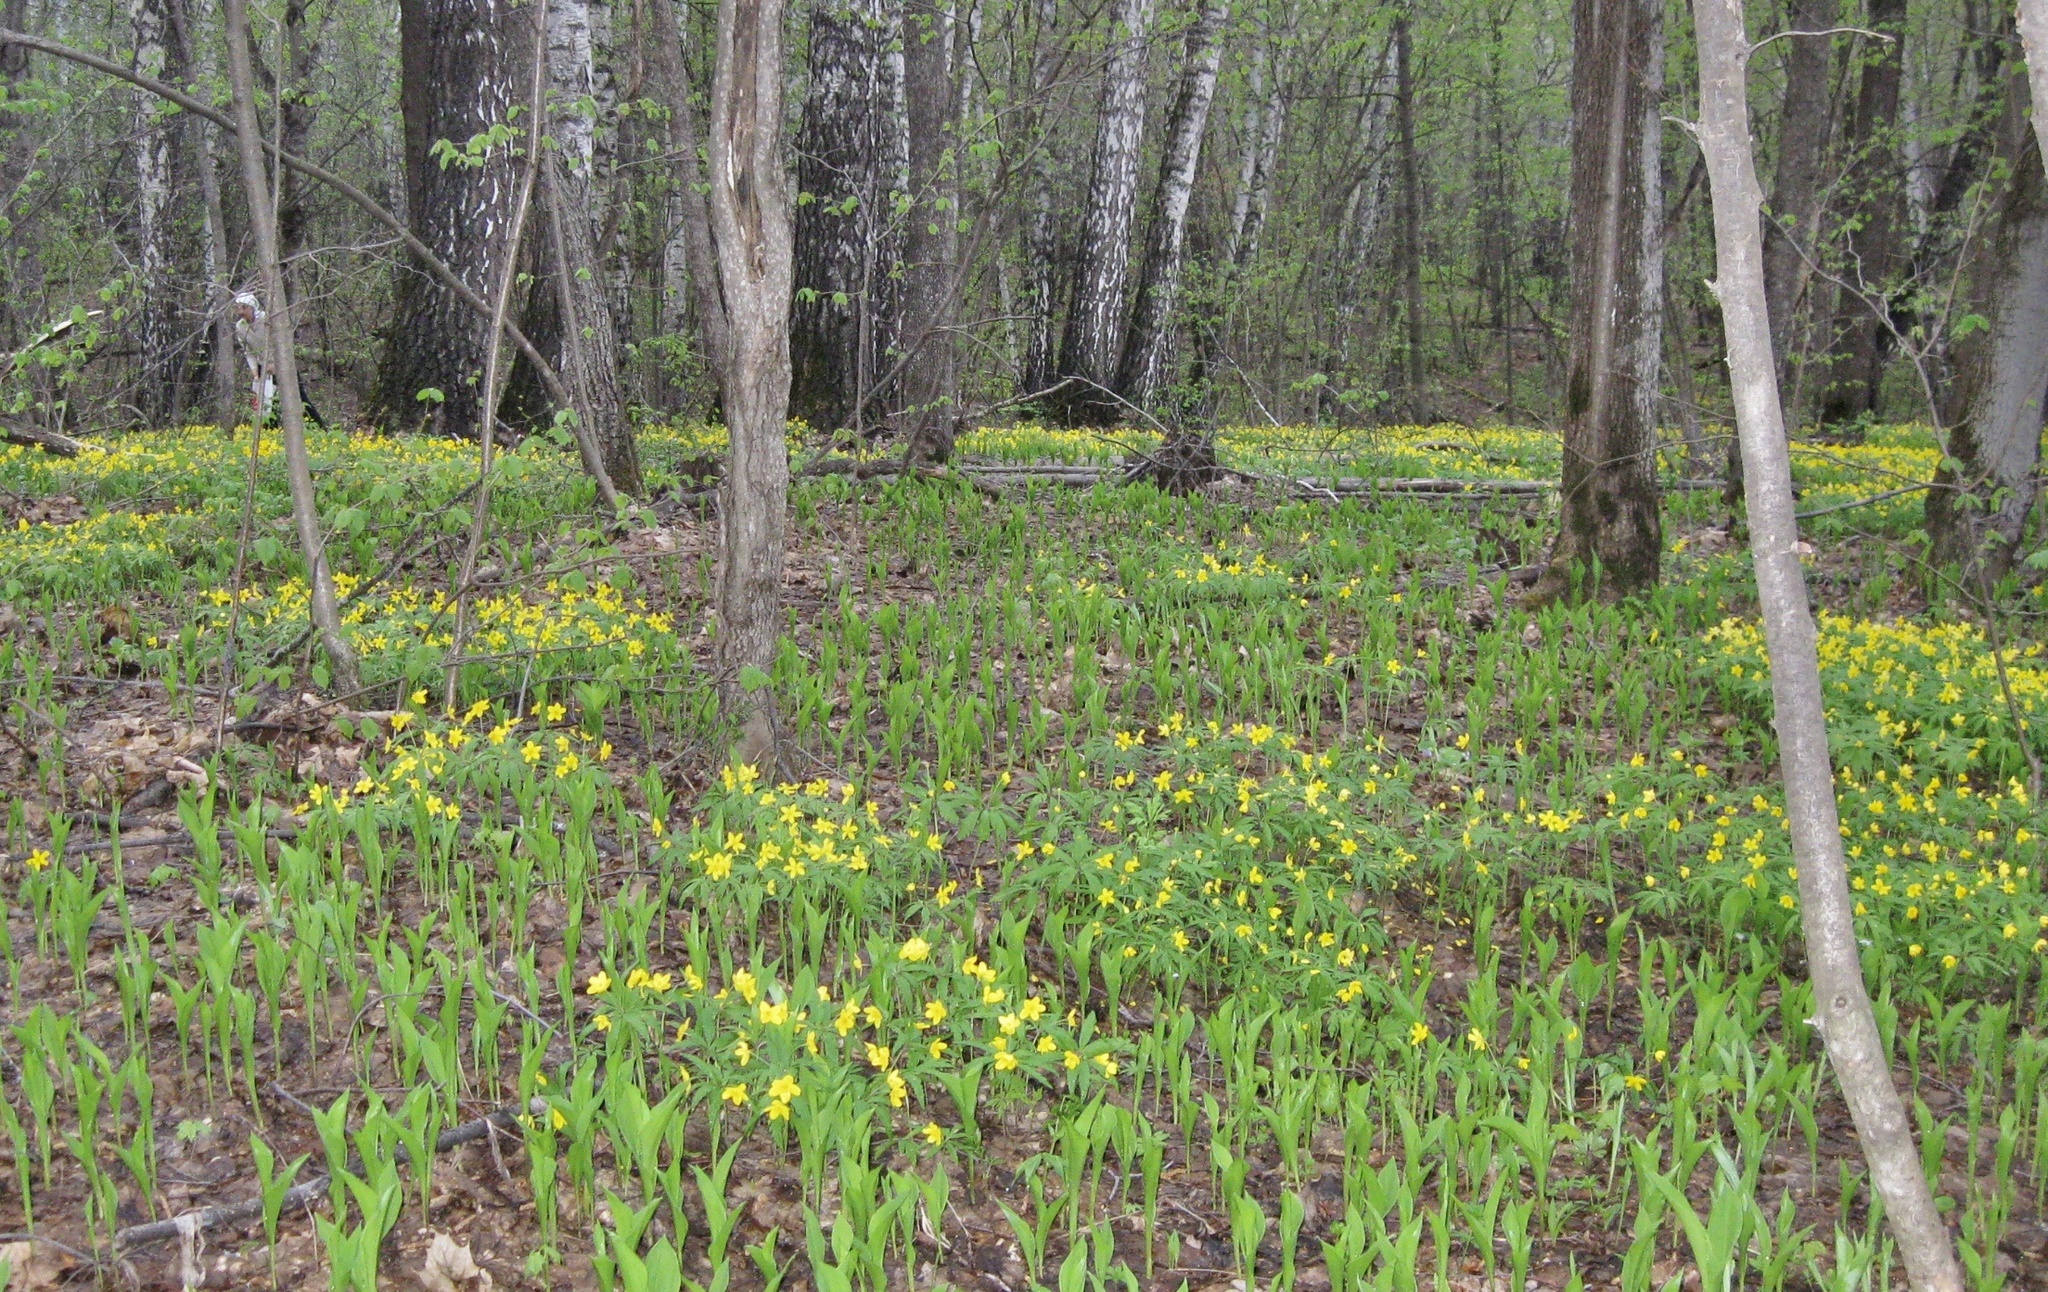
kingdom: Plantae
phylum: Tracheophyta
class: Magnoliopsida
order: Ranunculales
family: Ranunculaceae
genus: Anemone
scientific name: Anemone ranunculoides
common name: Yellow anemone
